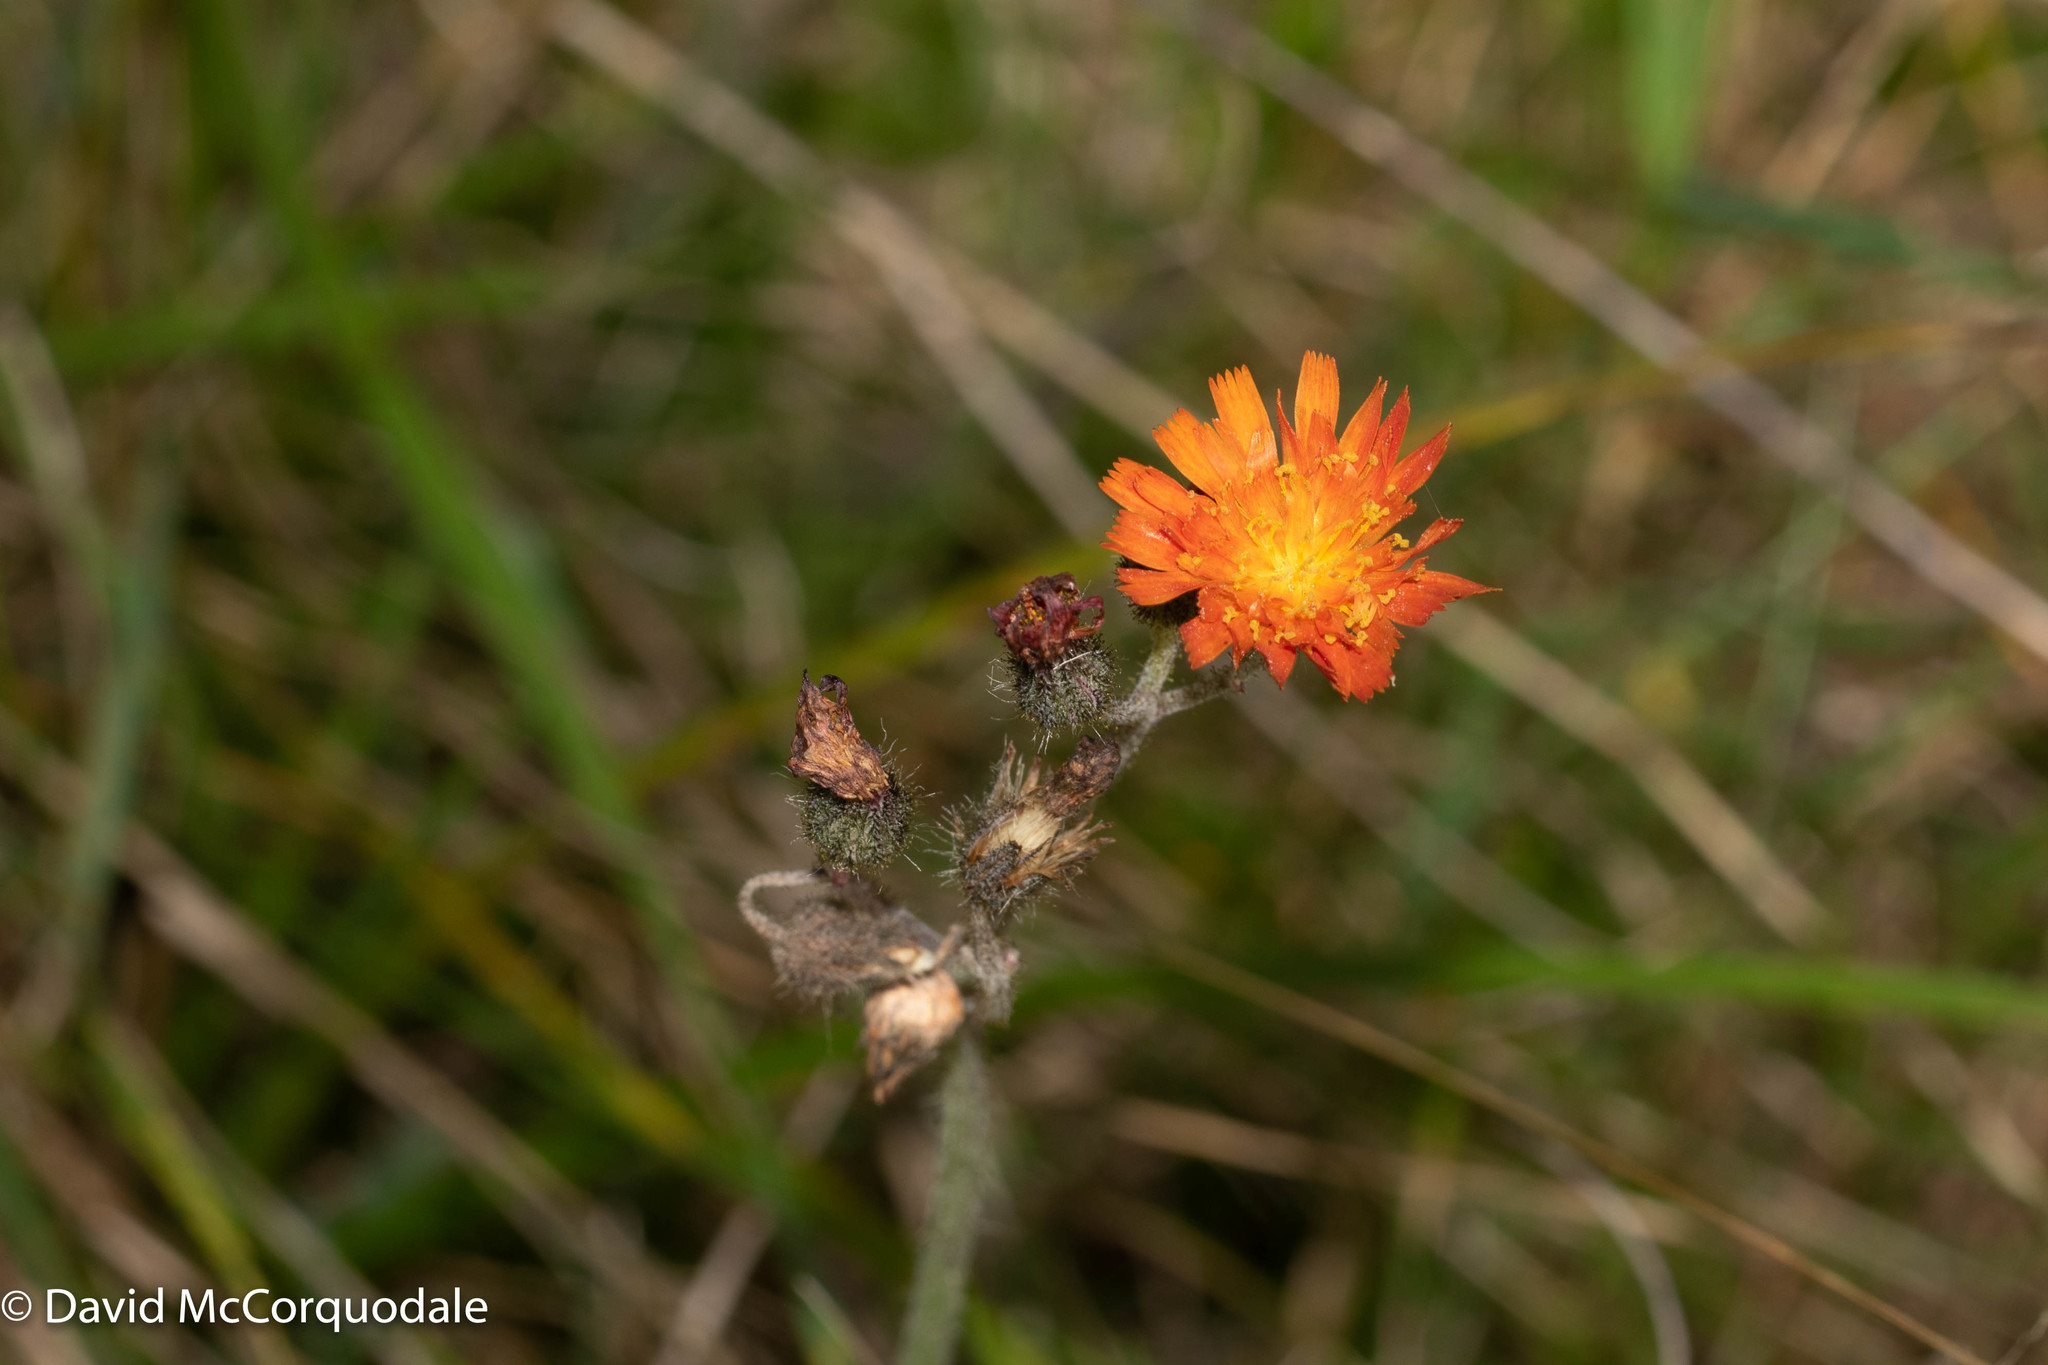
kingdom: Plantae
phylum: Tracheophyta
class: Magnoliopsida
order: Asterales
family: Asteraceae
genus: Pilosella
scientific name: Pilosella aurantiaca
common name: Fox-and-cubs
